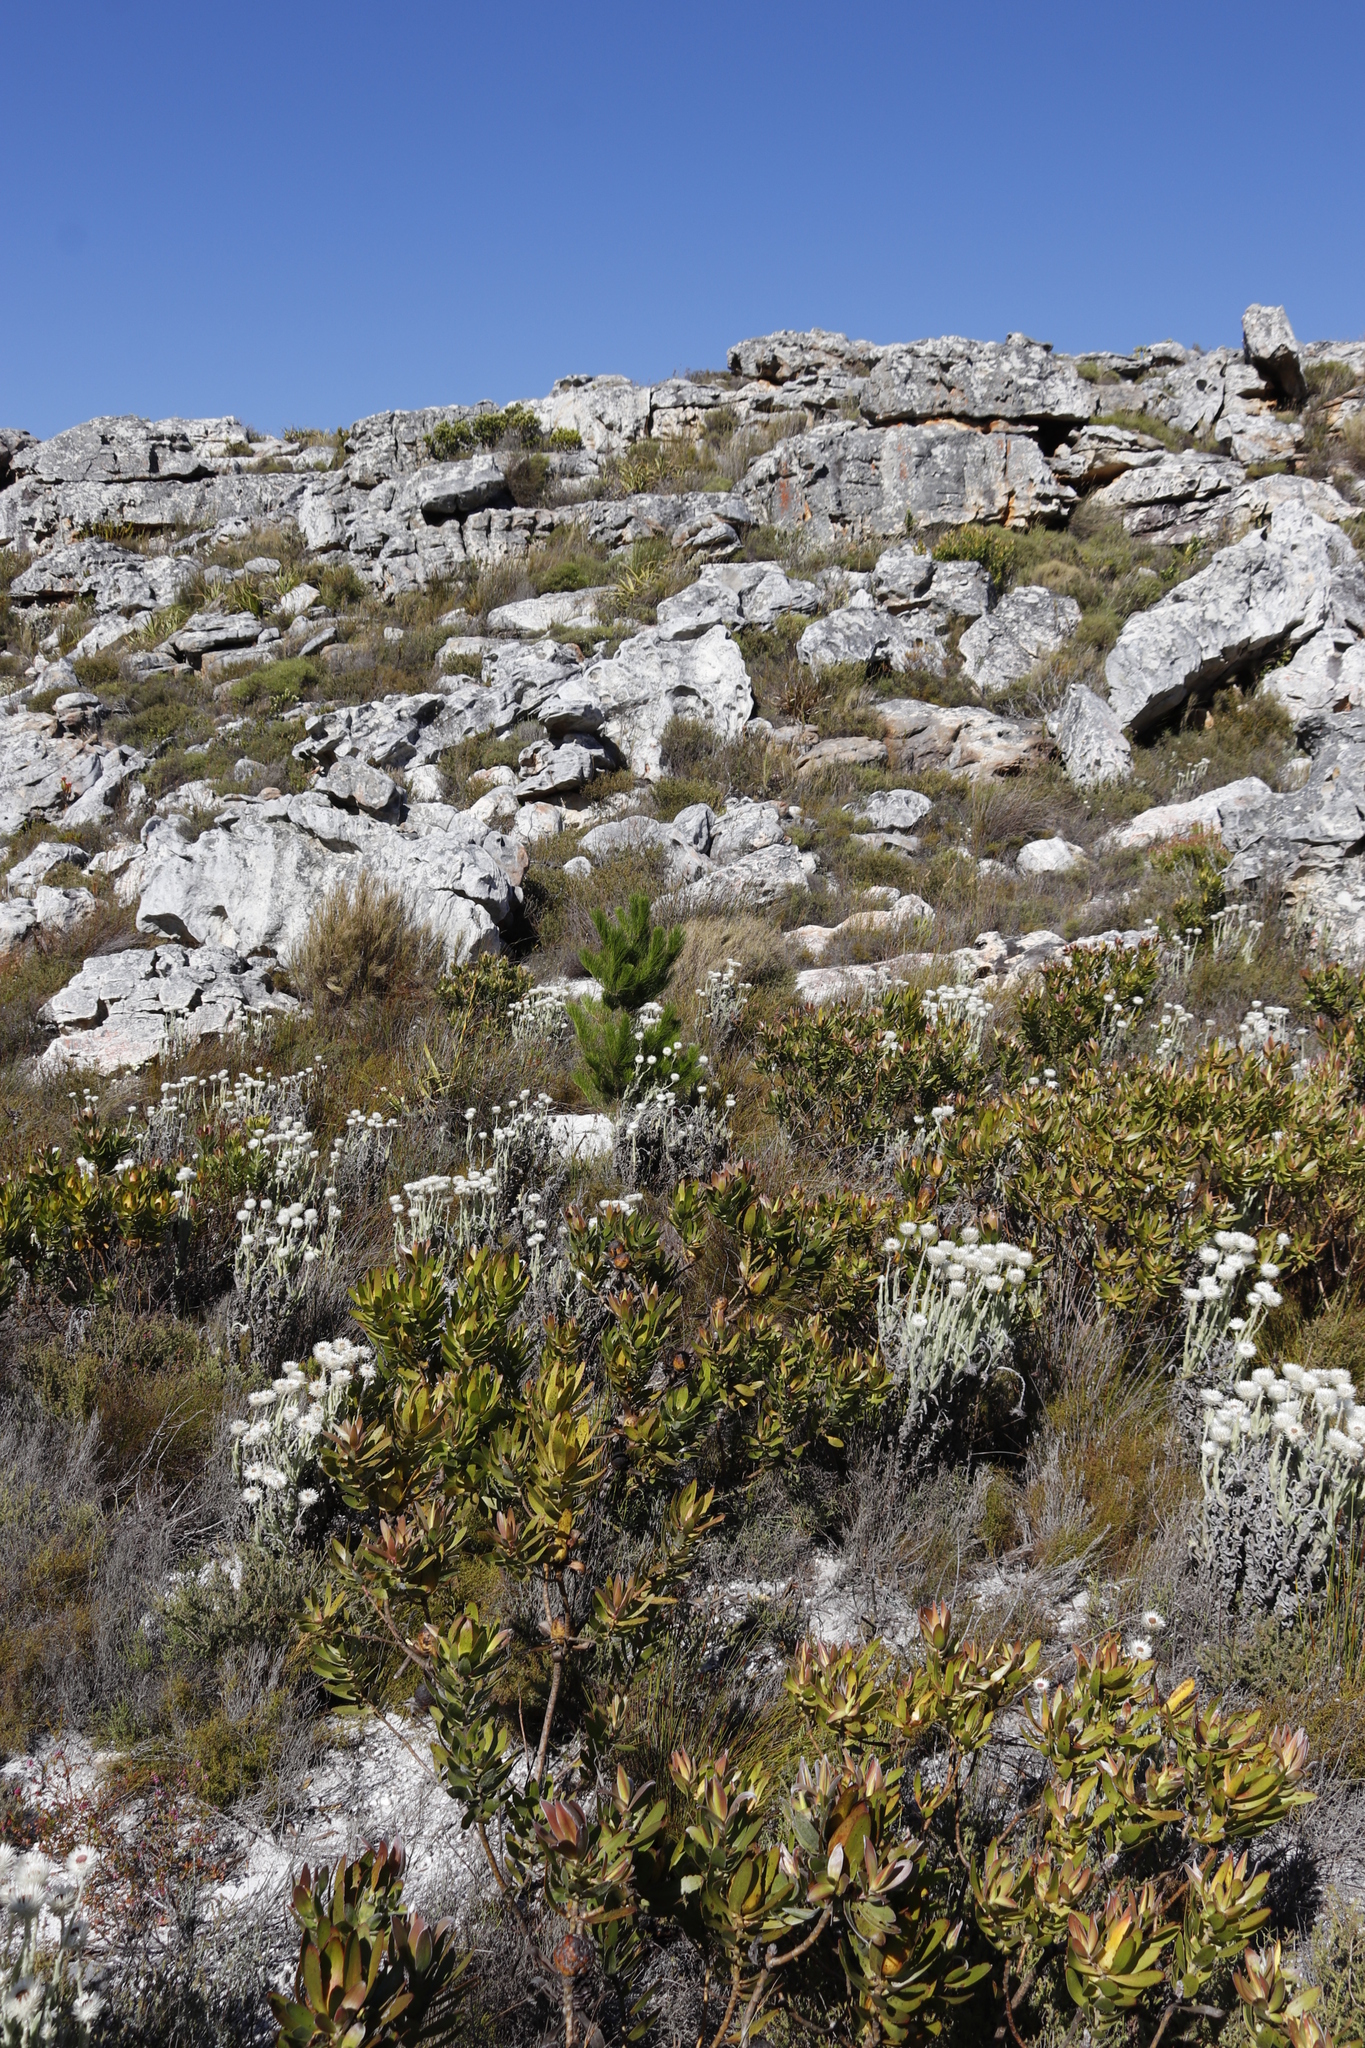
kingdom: Plantae
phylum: Tracheophyta
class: Pinopsida
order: Pinales
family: Pinaceae
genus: Pinus
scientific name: Pinus radiata
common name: Monterey pine
